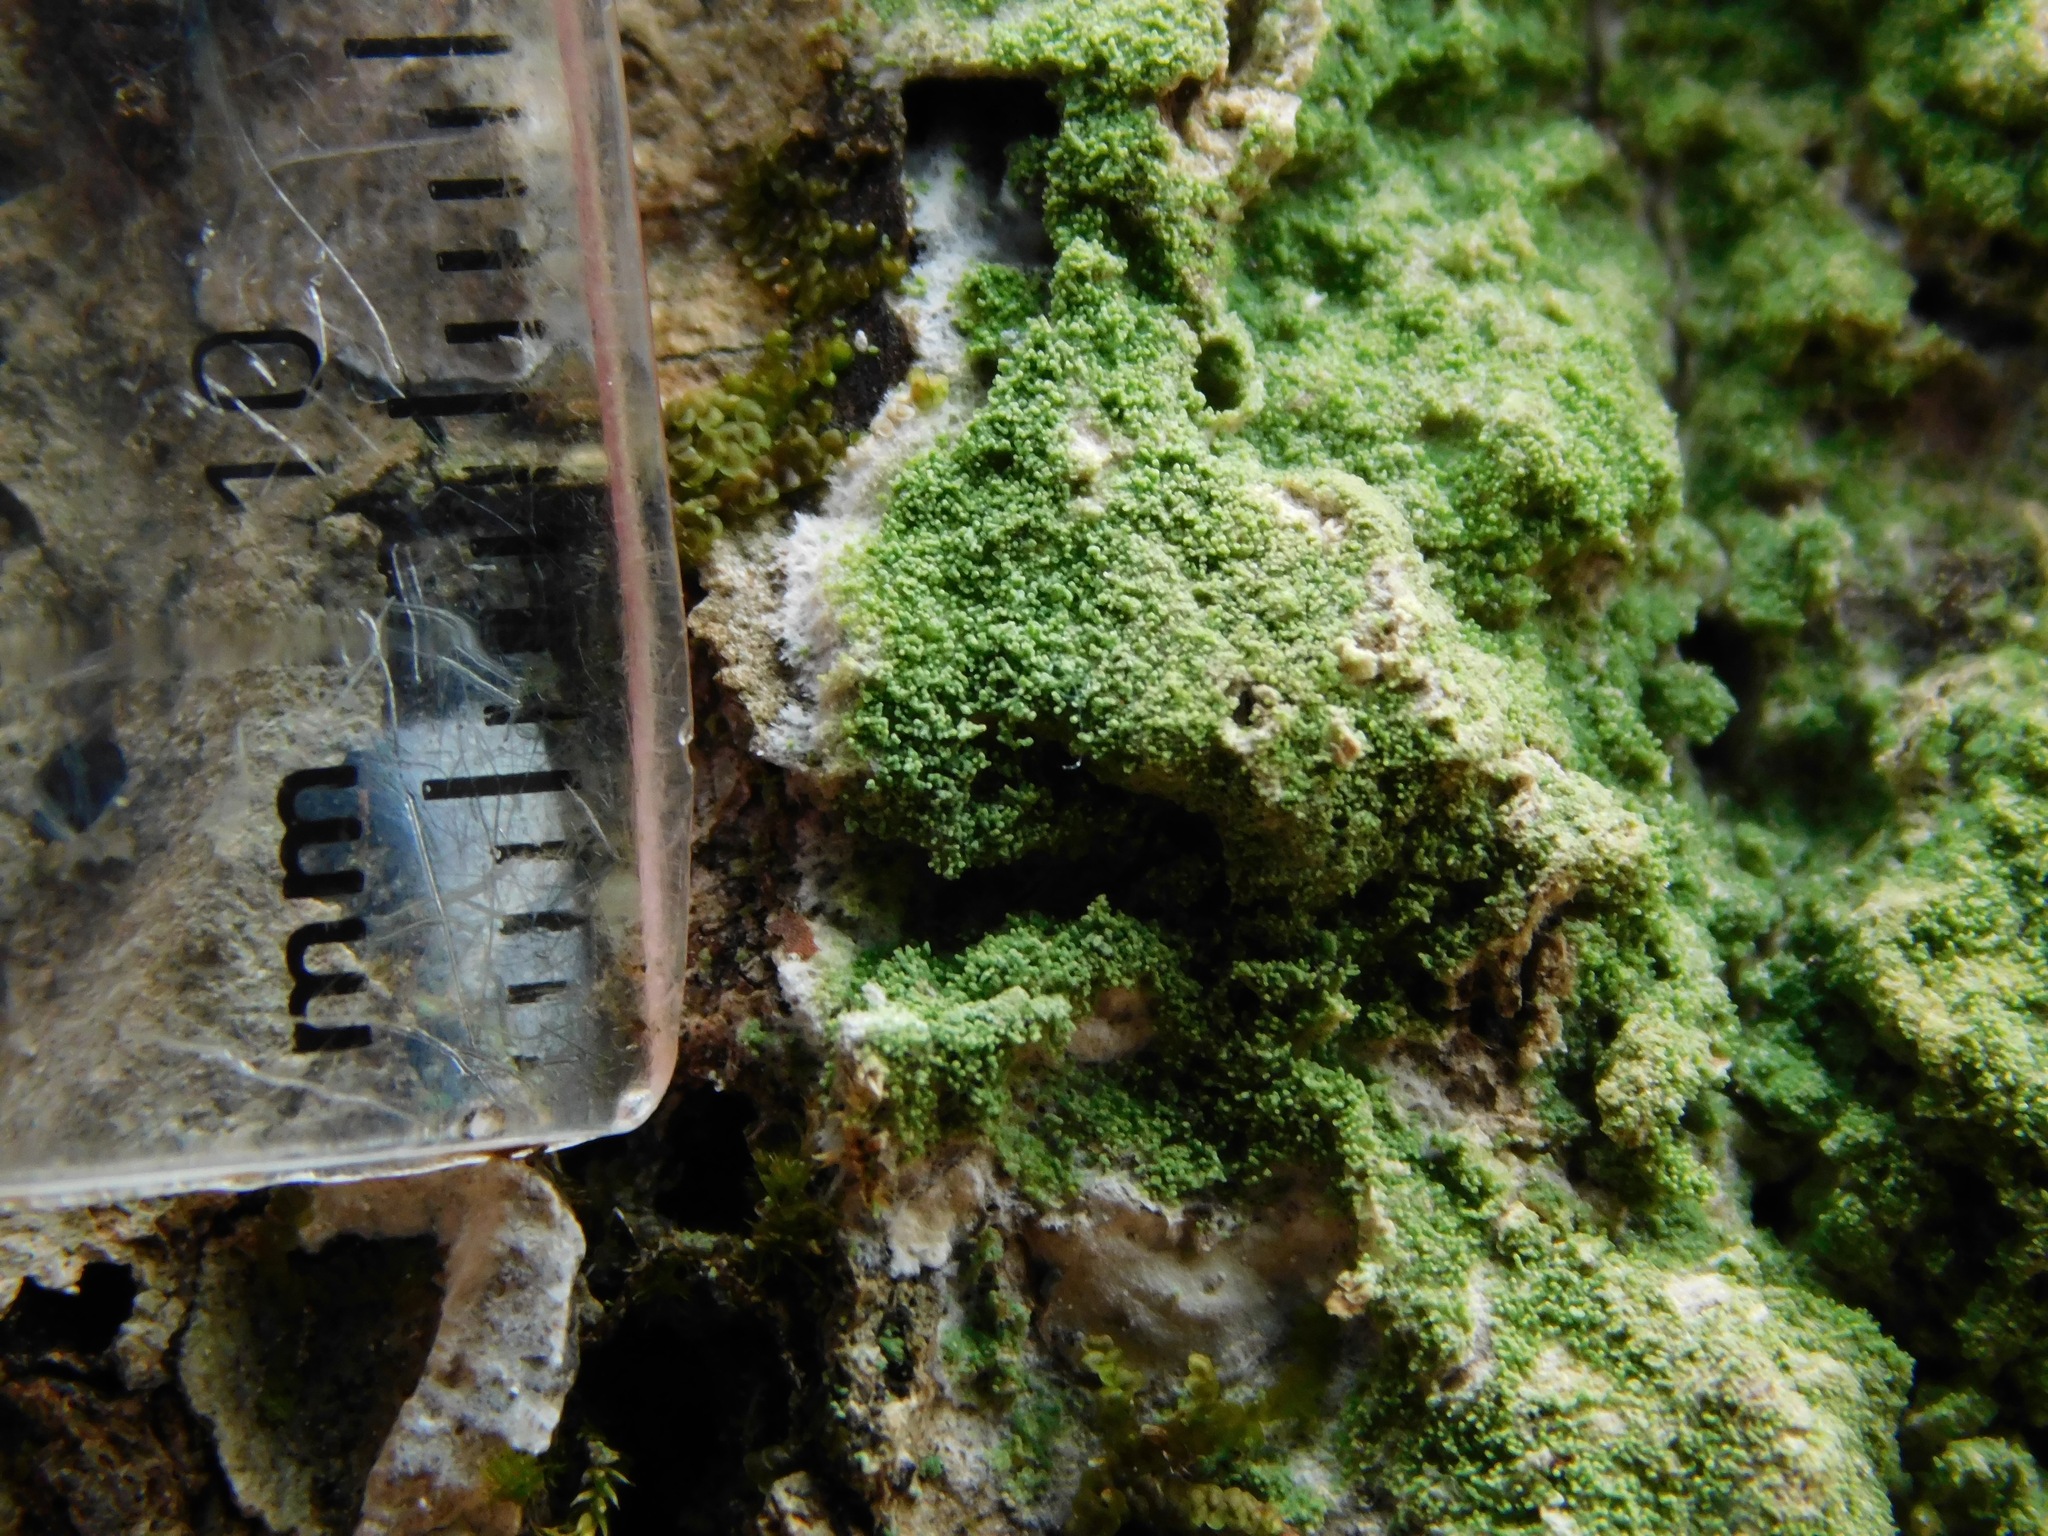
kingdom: Fungi
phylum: Ascomycota
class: Lecanoromycetes
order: Lecanorales
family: Ramalinaceae
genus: Phyllopsora
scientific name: Phyllopsora corallina
